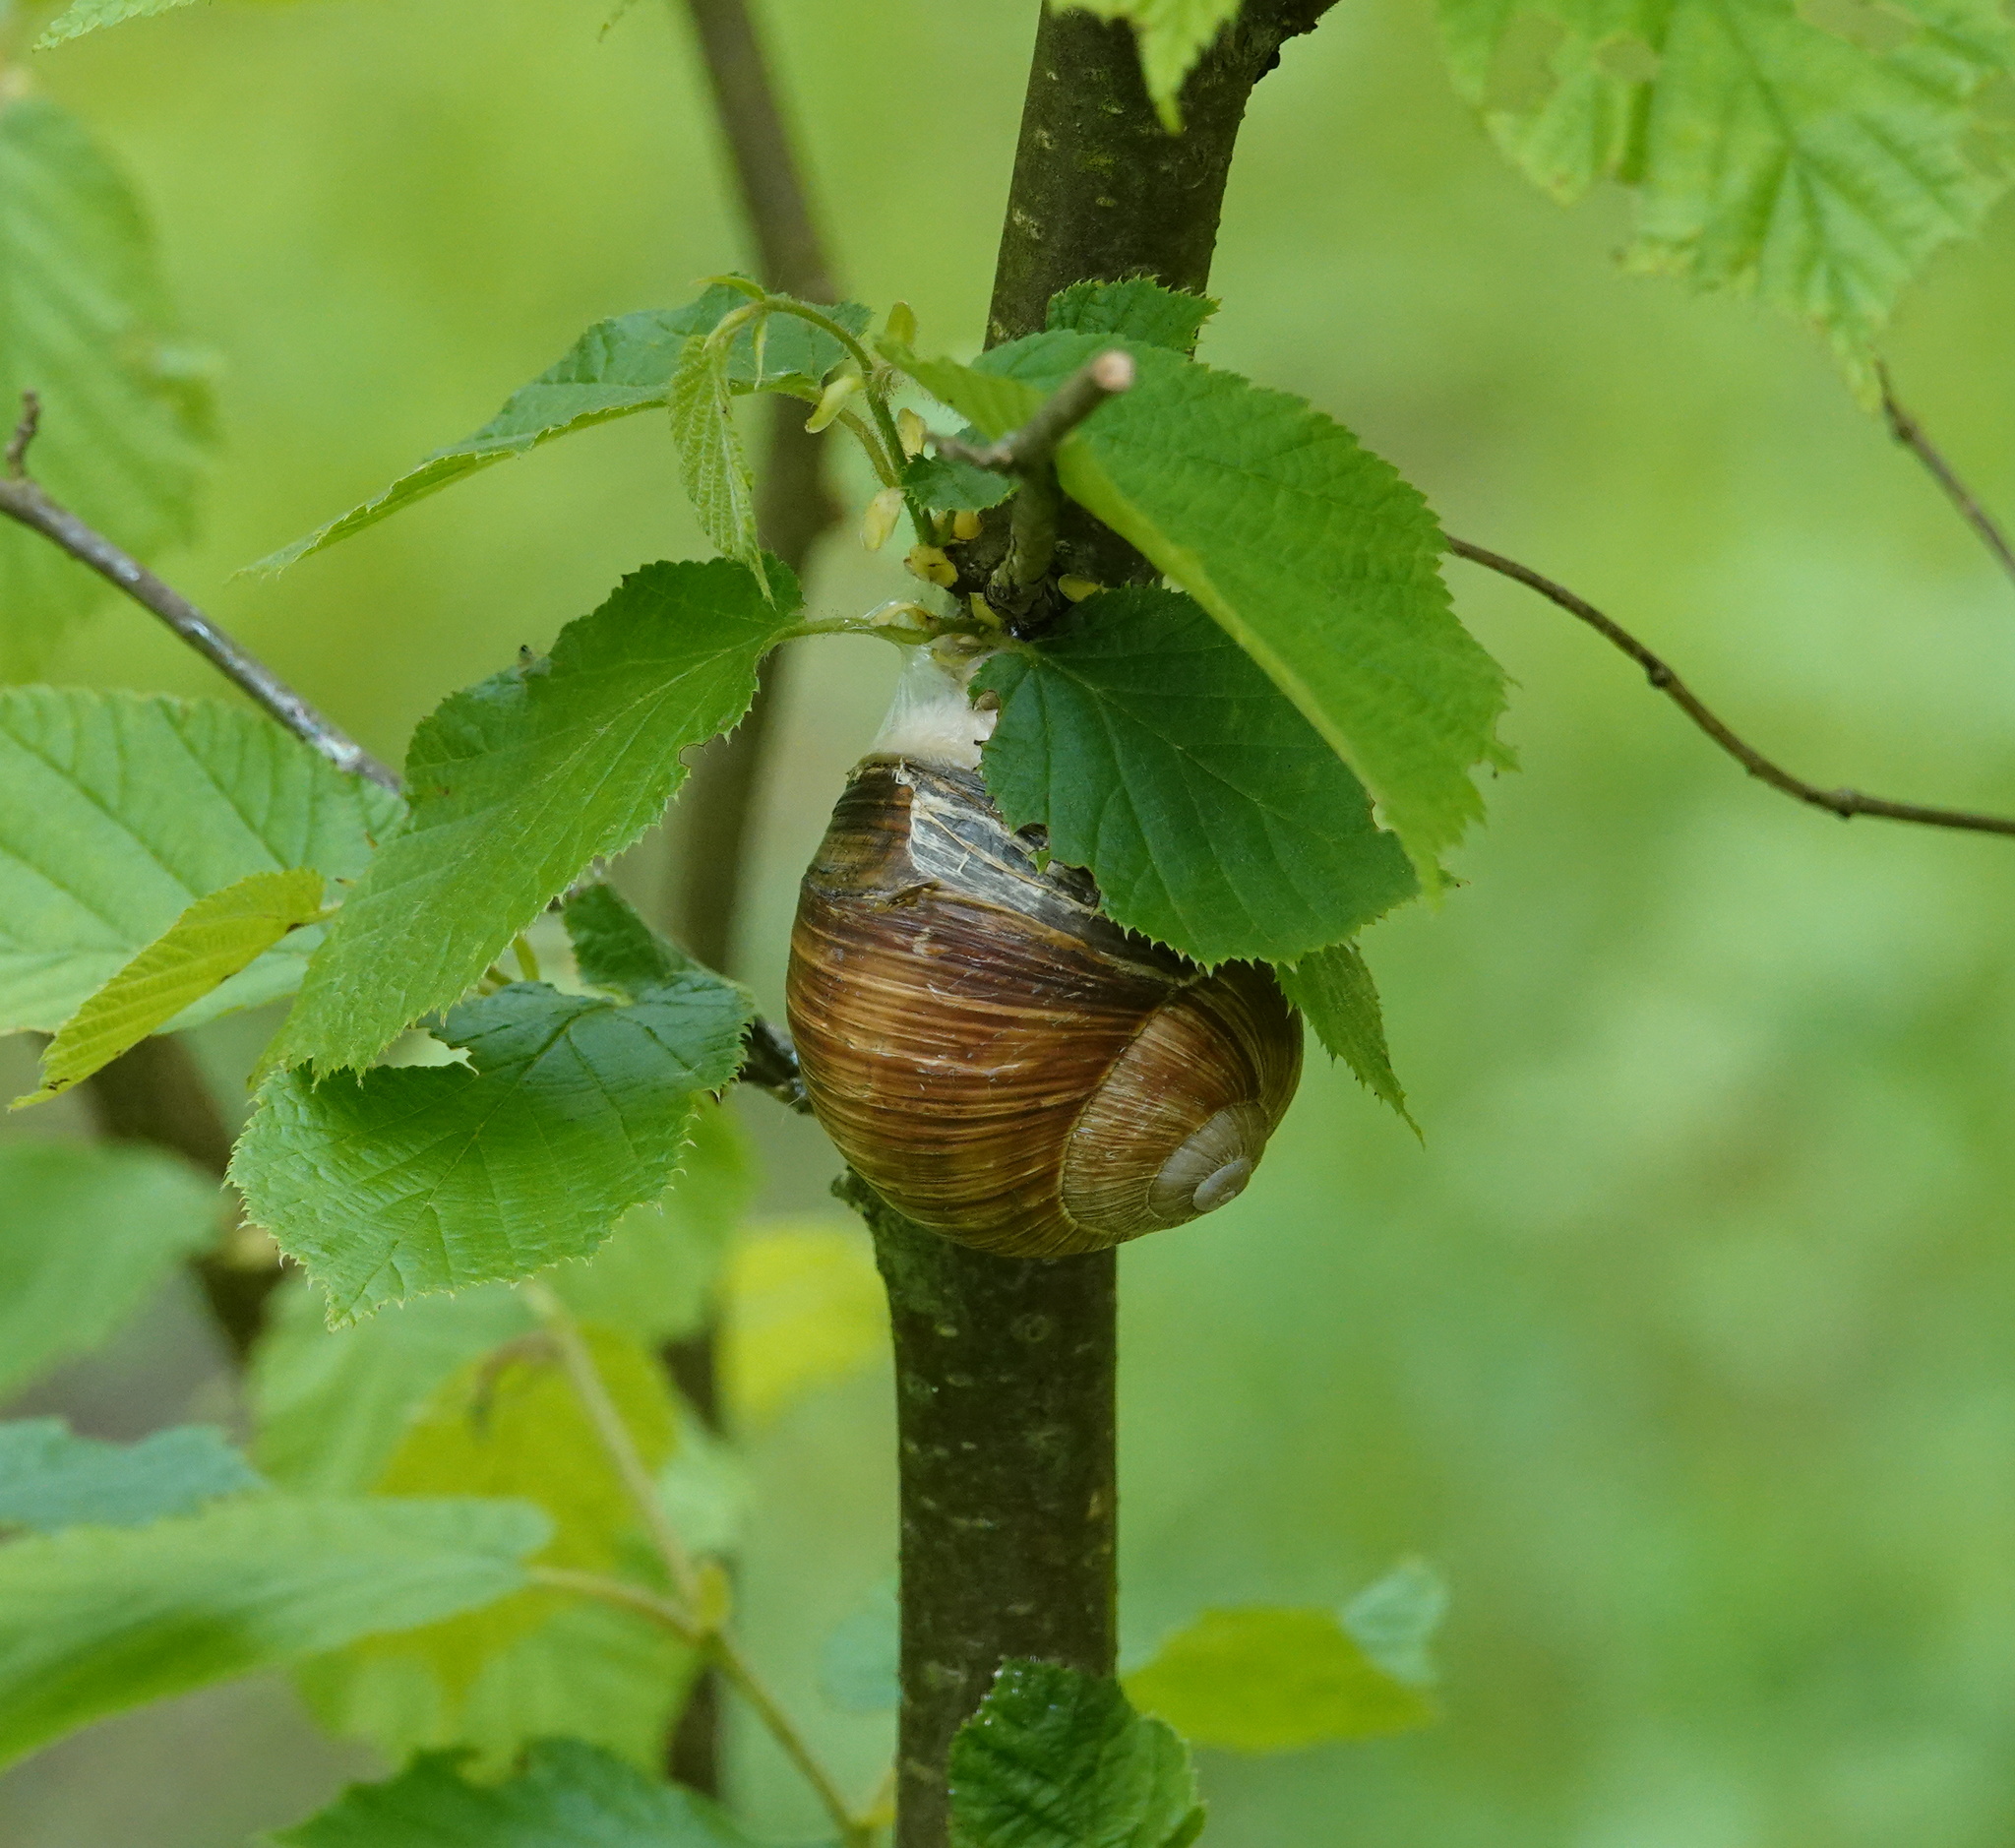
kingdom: Animalia
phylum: Mollusca
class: Gastropoda
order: Stylommatophora
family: Helicidae
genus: Helix
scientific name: Helix pomatia
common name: Roman snail
